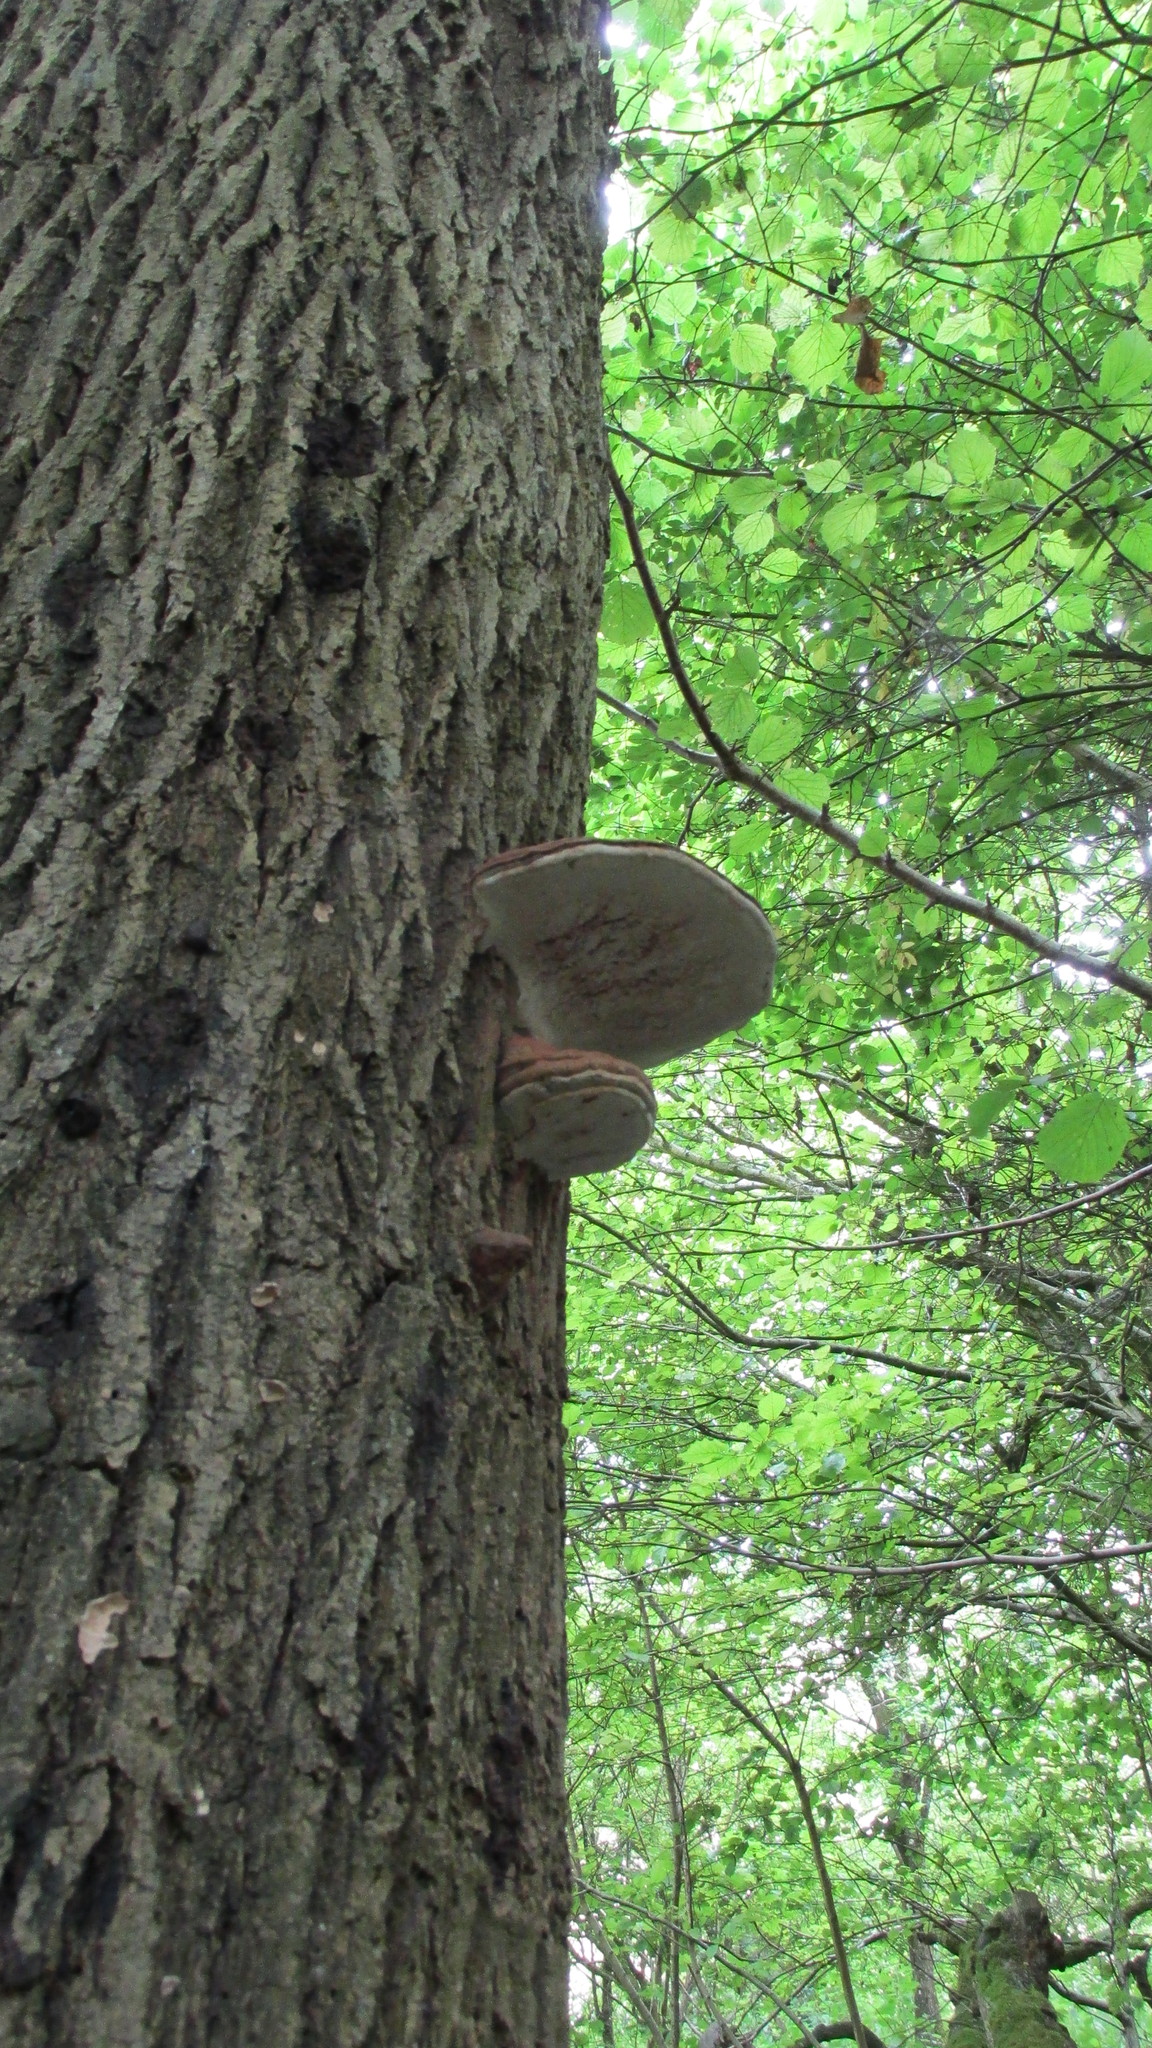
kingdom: Fungi
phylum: Basidiomycota
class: Agaricomycetes
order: Polyporales
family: Polyporaceae
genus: Ganoderma
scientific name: Ganoderma applanatum
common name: Artist's bracket
